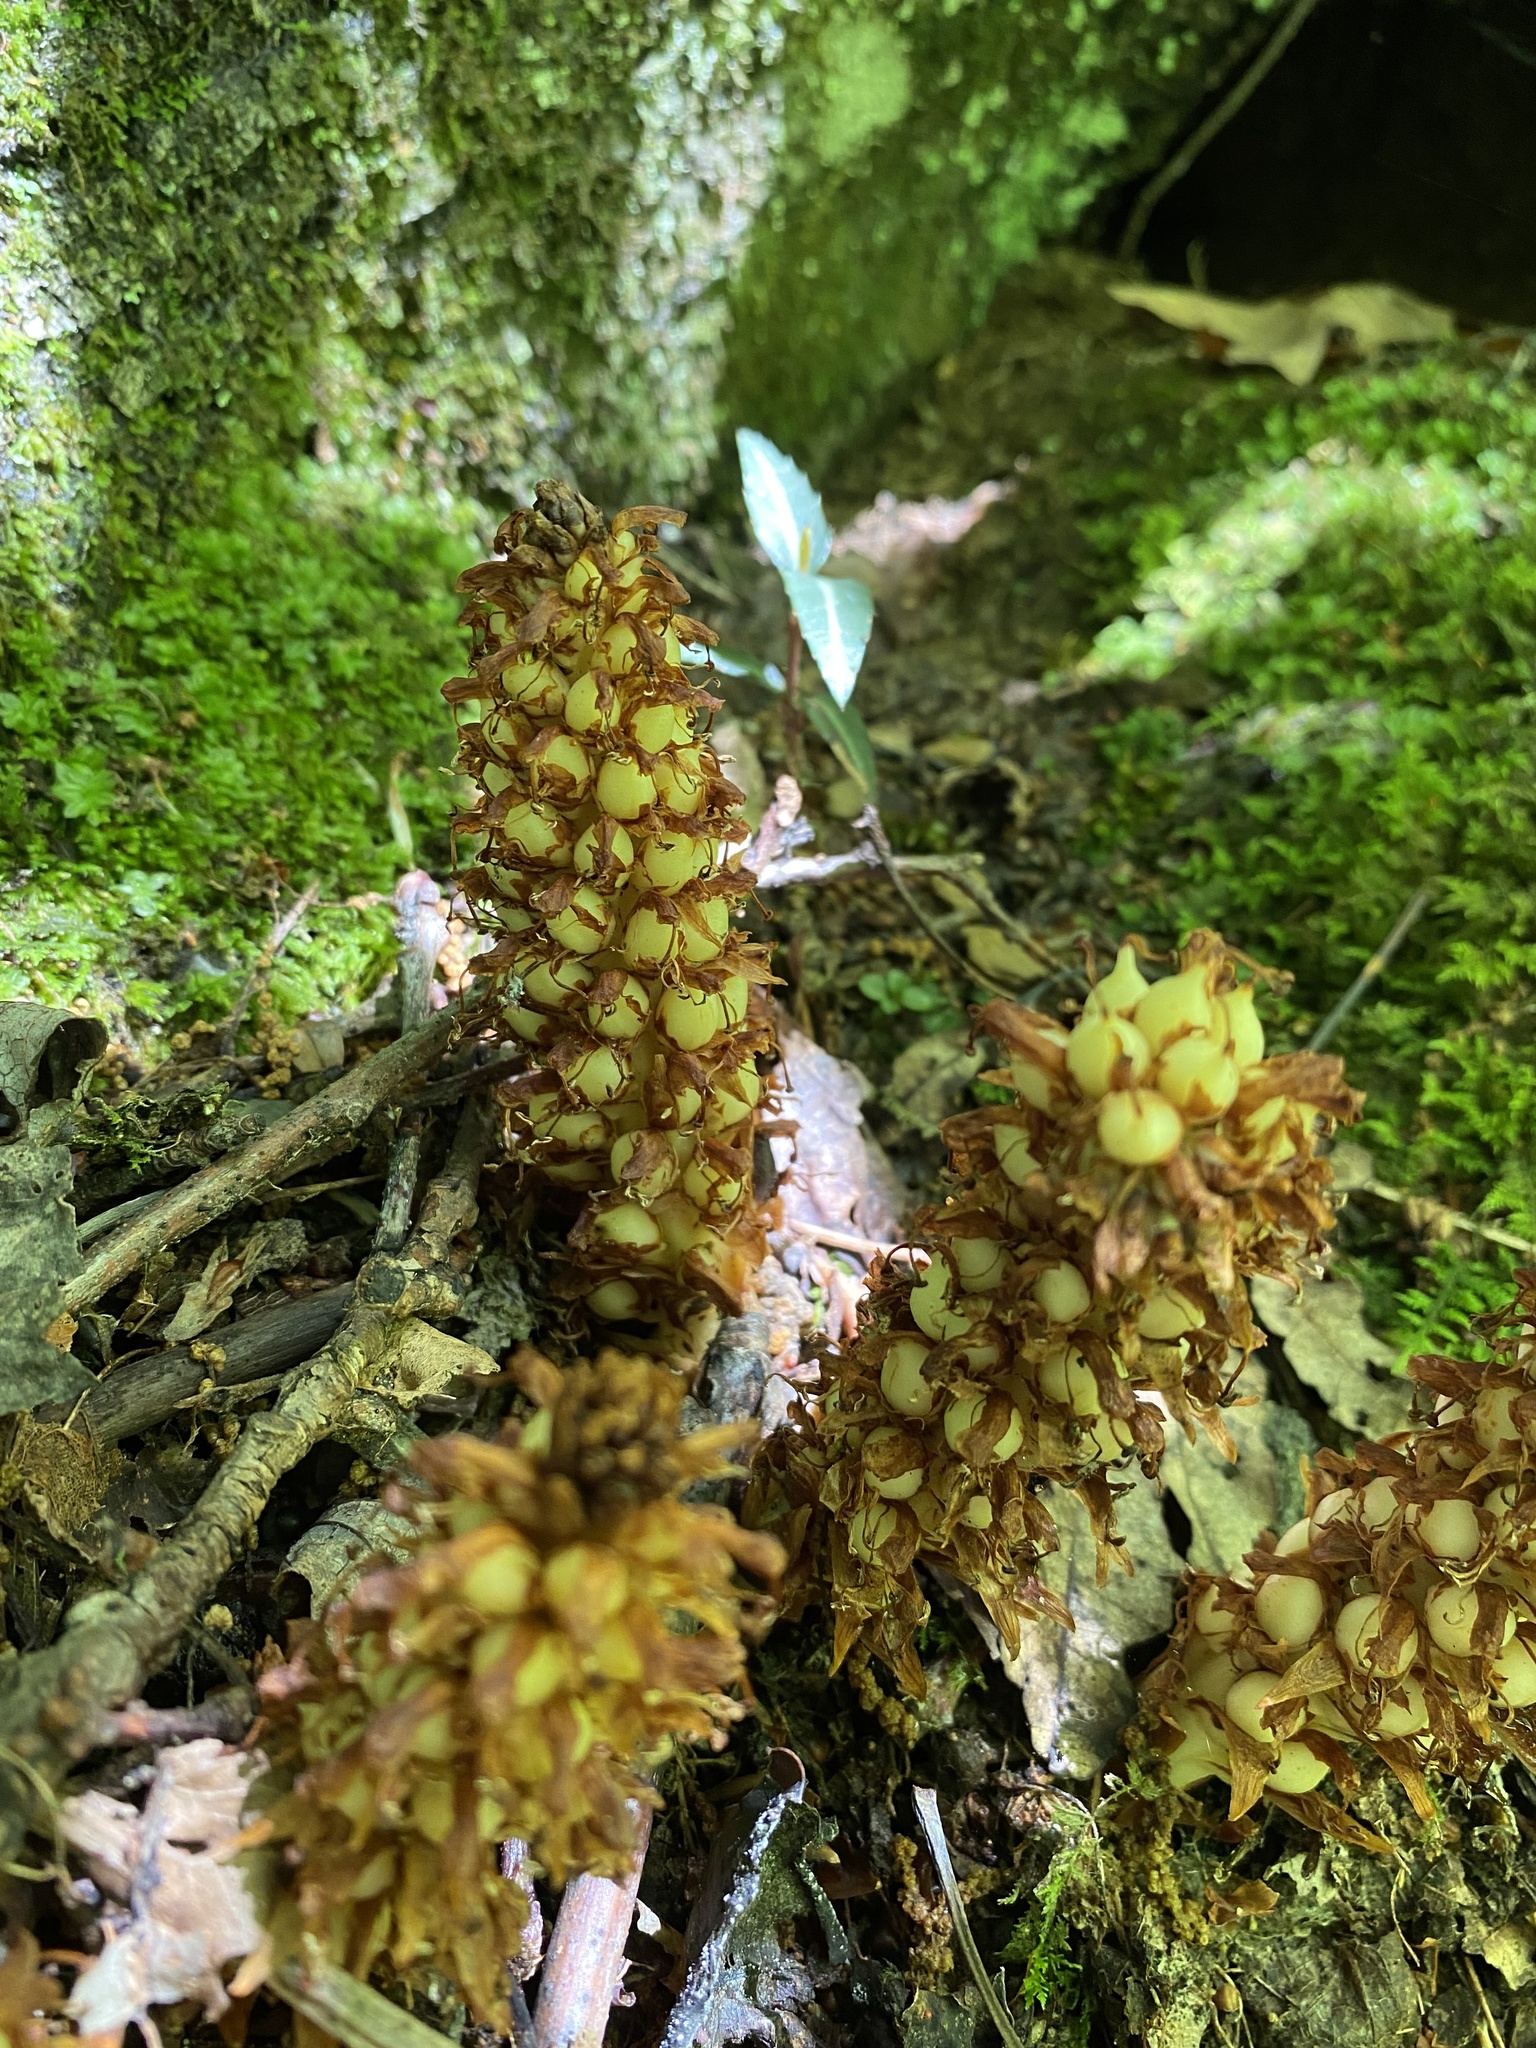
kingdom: Plantae
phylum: Tracheophyta
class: Magnoliopsida
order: Lamiales
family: Orobanchaceae
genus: Conopholis
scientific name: Conopholis americana
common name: American cancer-root
